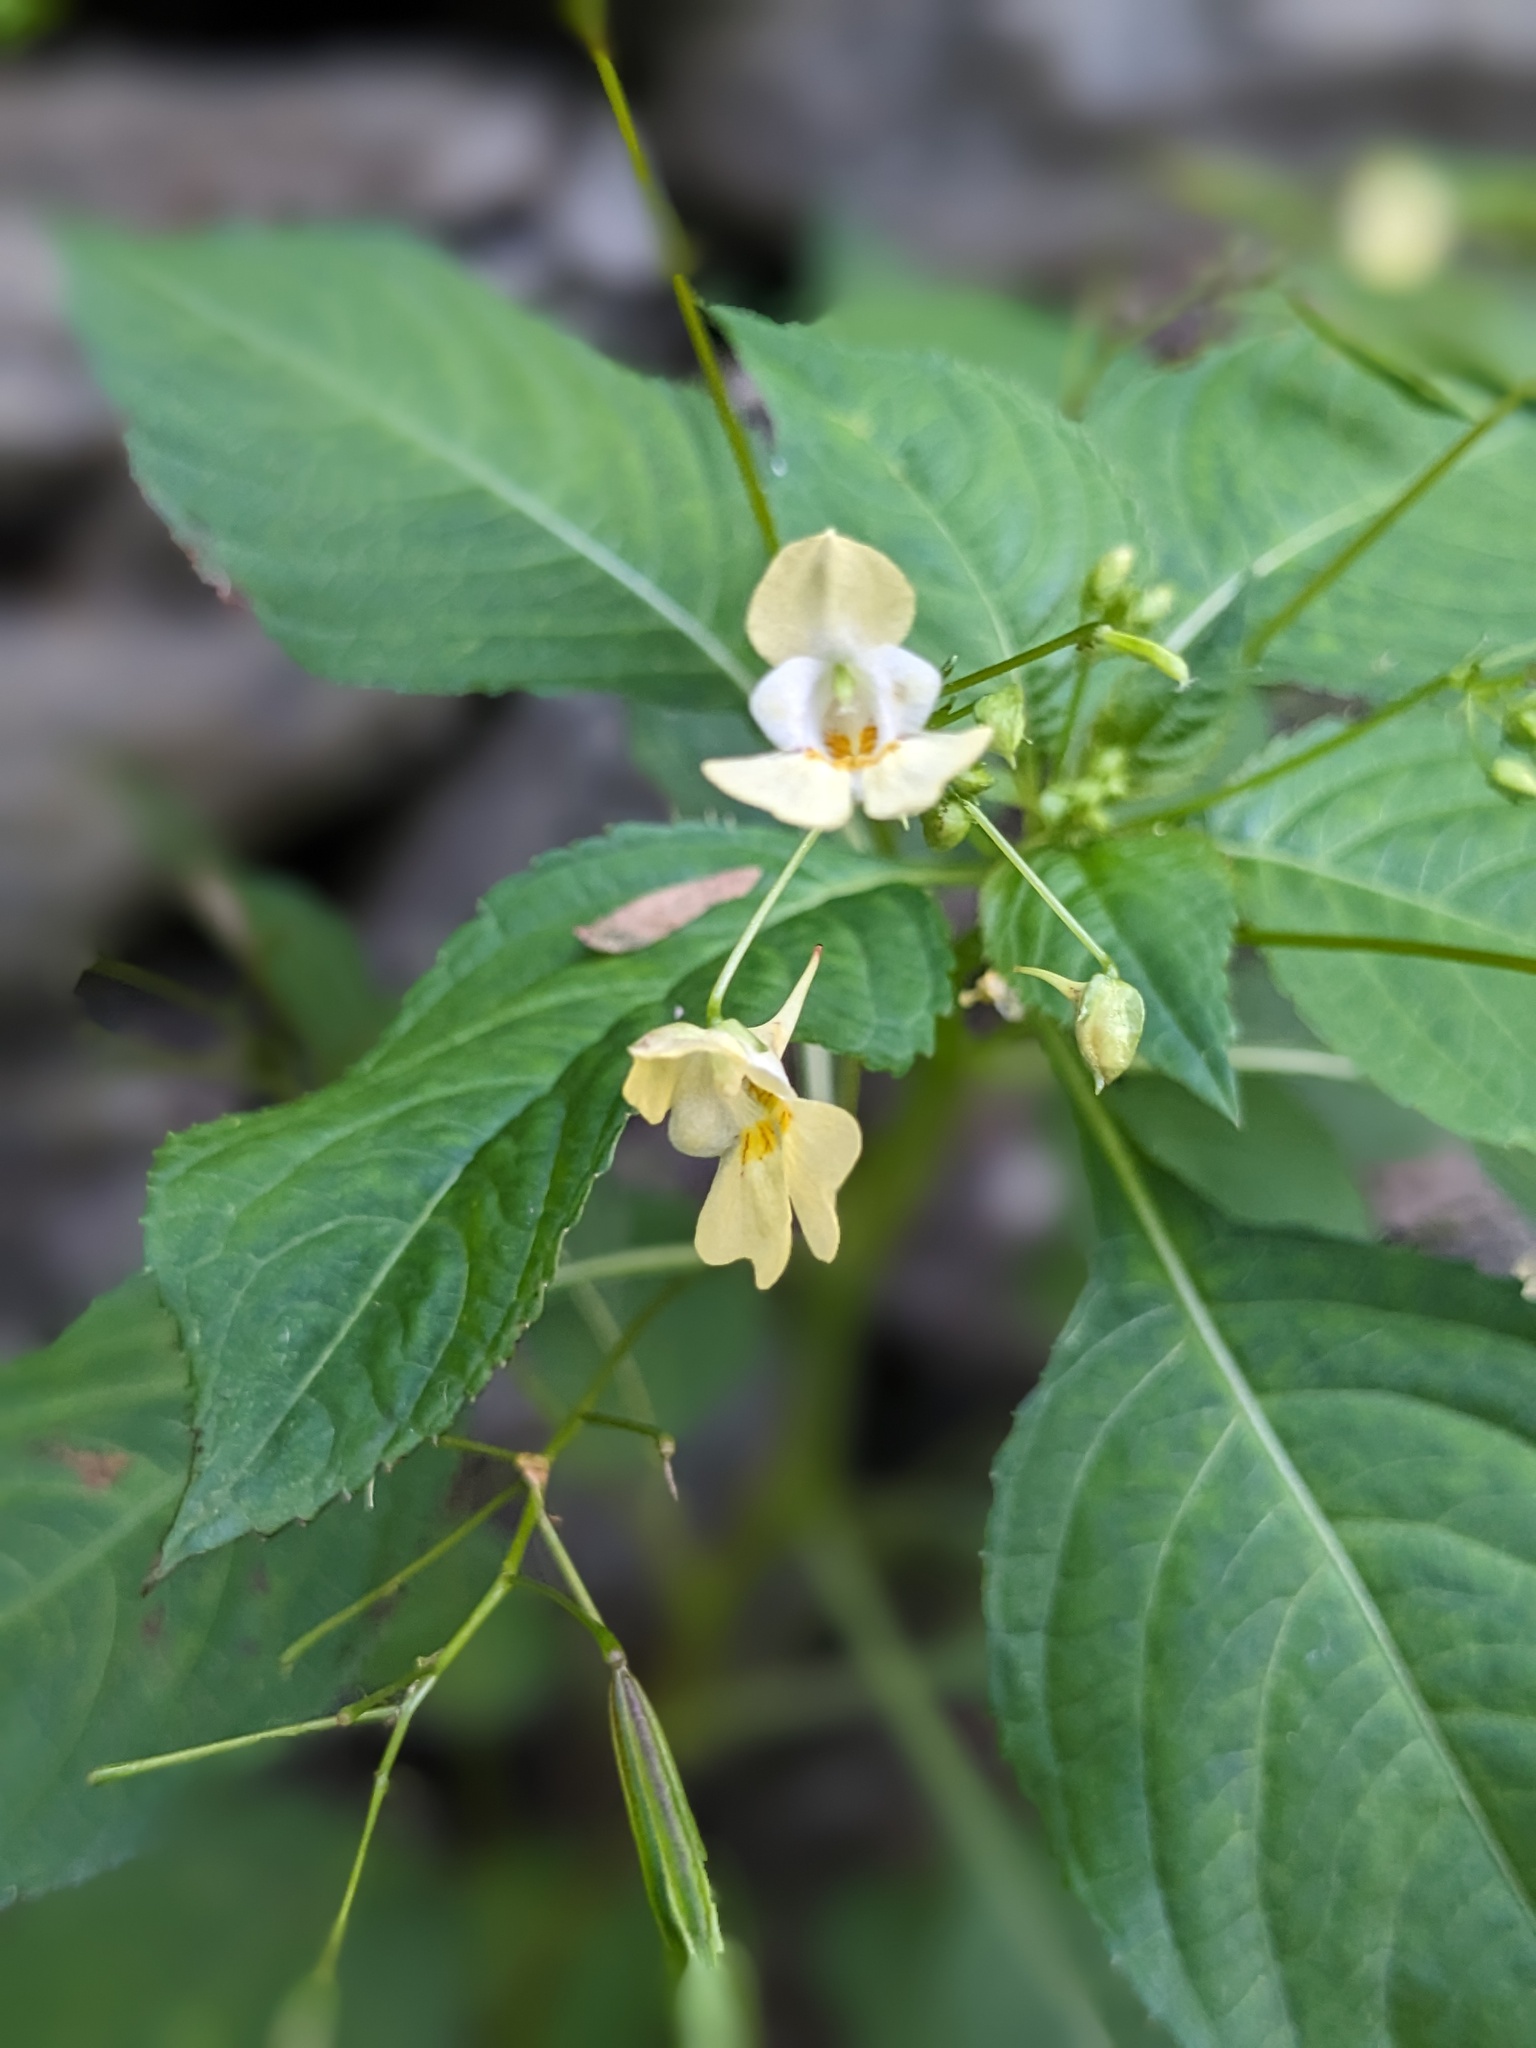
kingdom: Plantae
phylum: Tracheophyta
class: Magnoliopsida
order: Ericales
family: Balsaminaceae
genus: Impatiens
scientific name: Impatiens parviflora
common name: Small balsam
